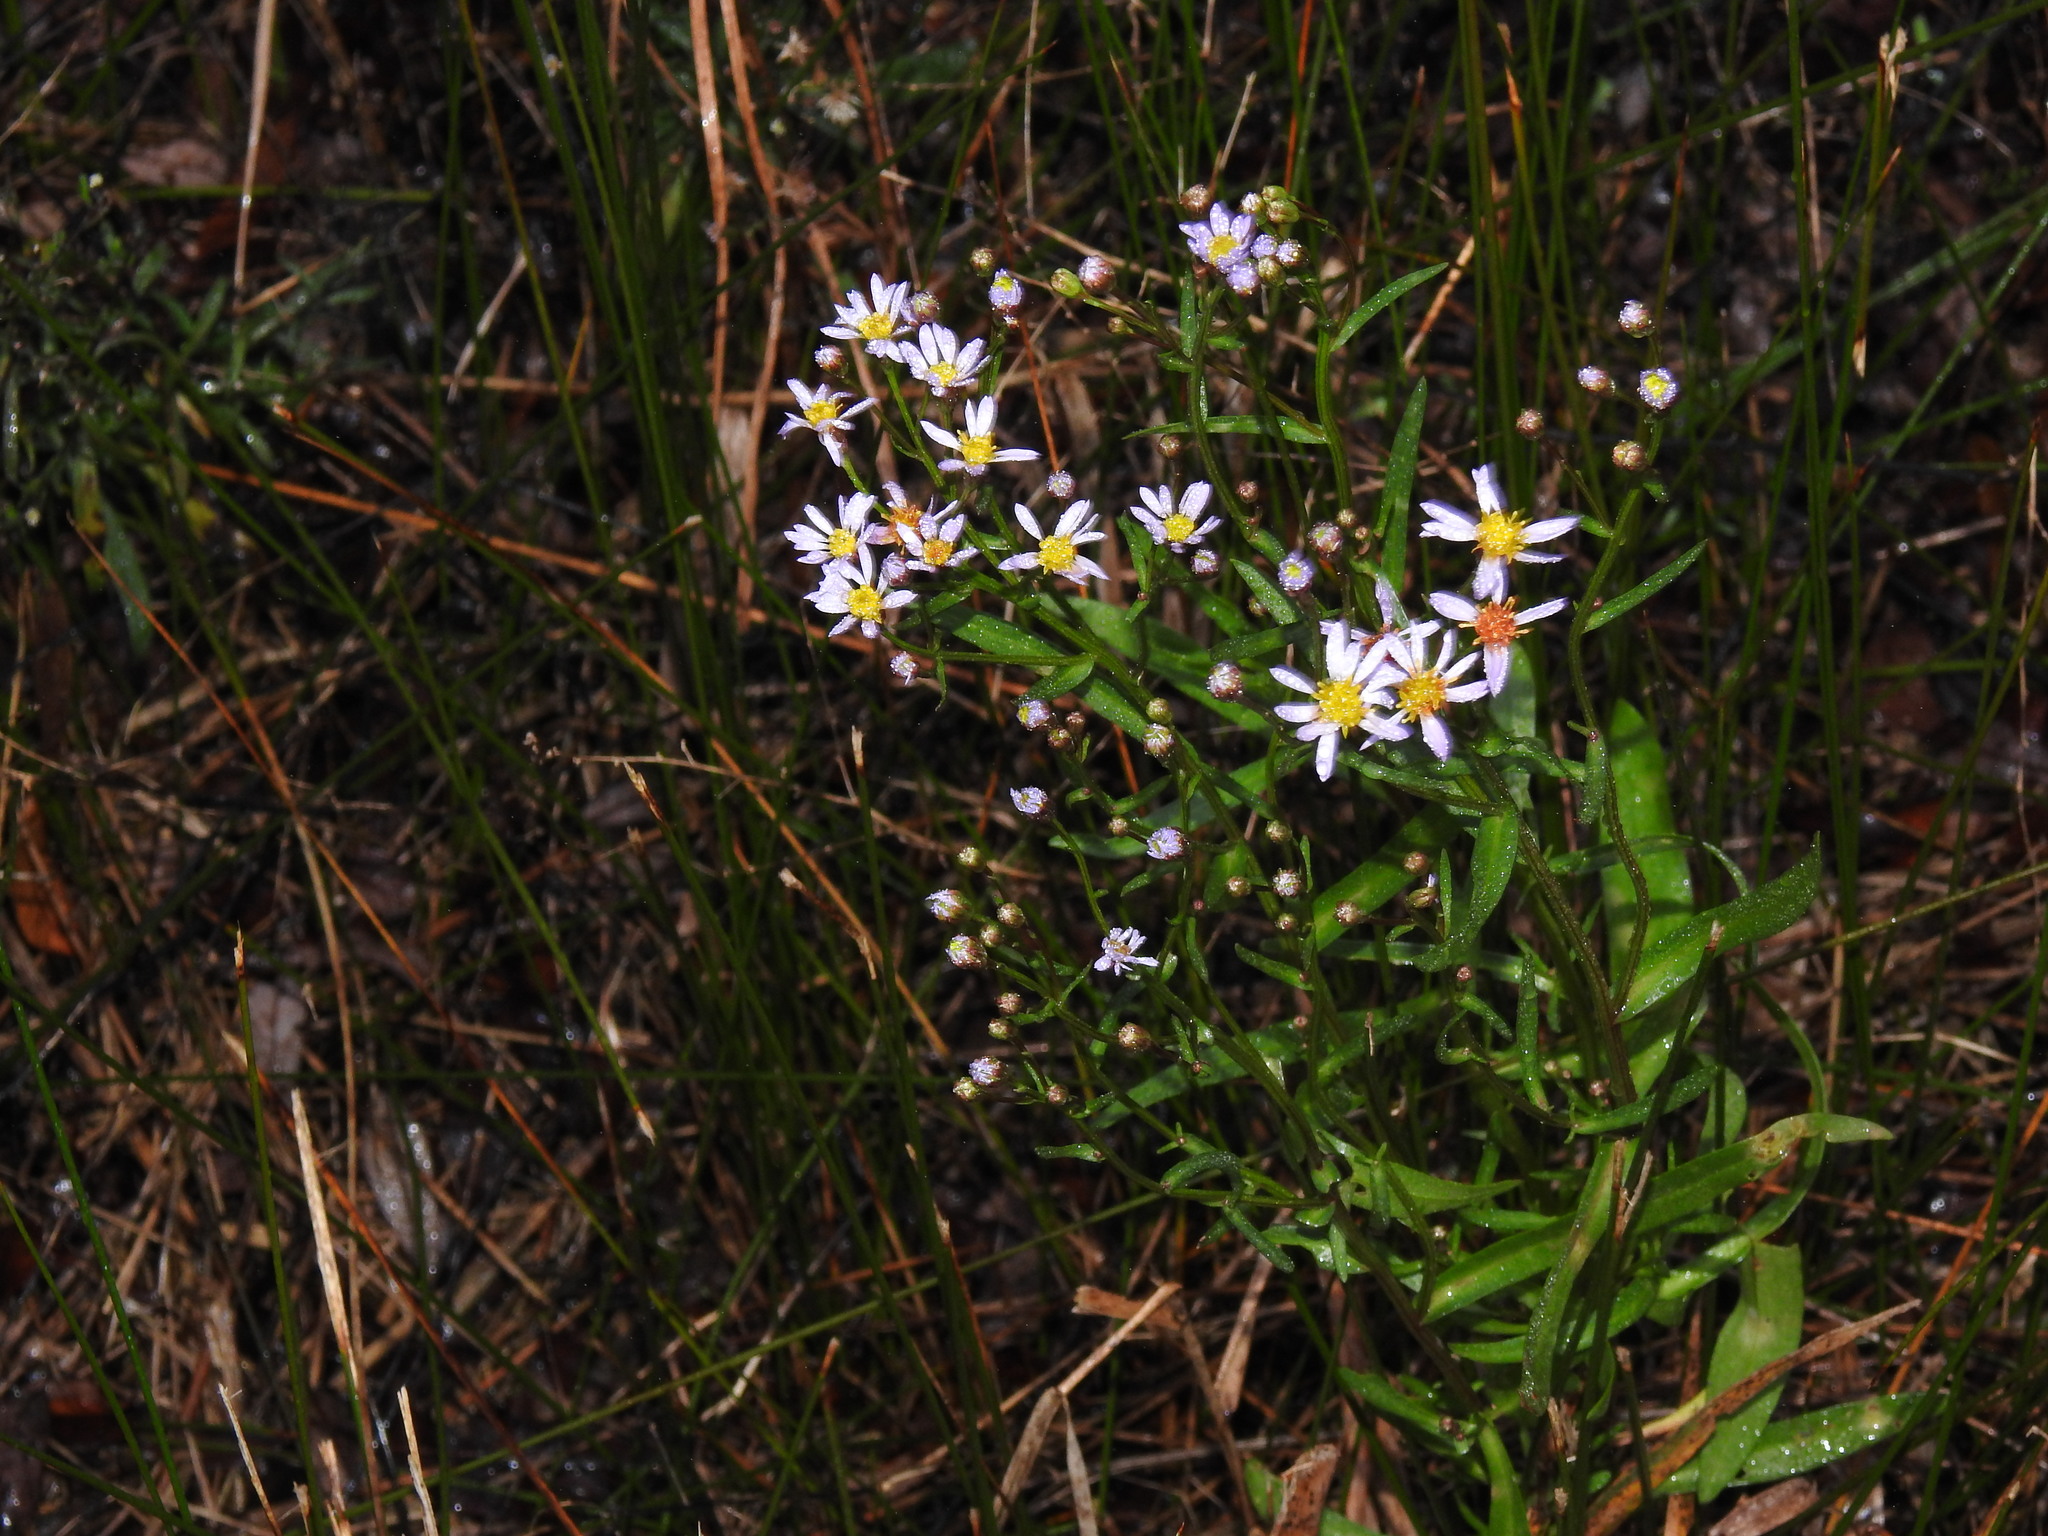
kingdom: Plantae
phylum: Tracheophyta
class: Magnoliopsida
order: Asterales
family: Asteraceae
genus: Tripolium
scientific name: Tripolium pannonicum
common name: Sea aster
